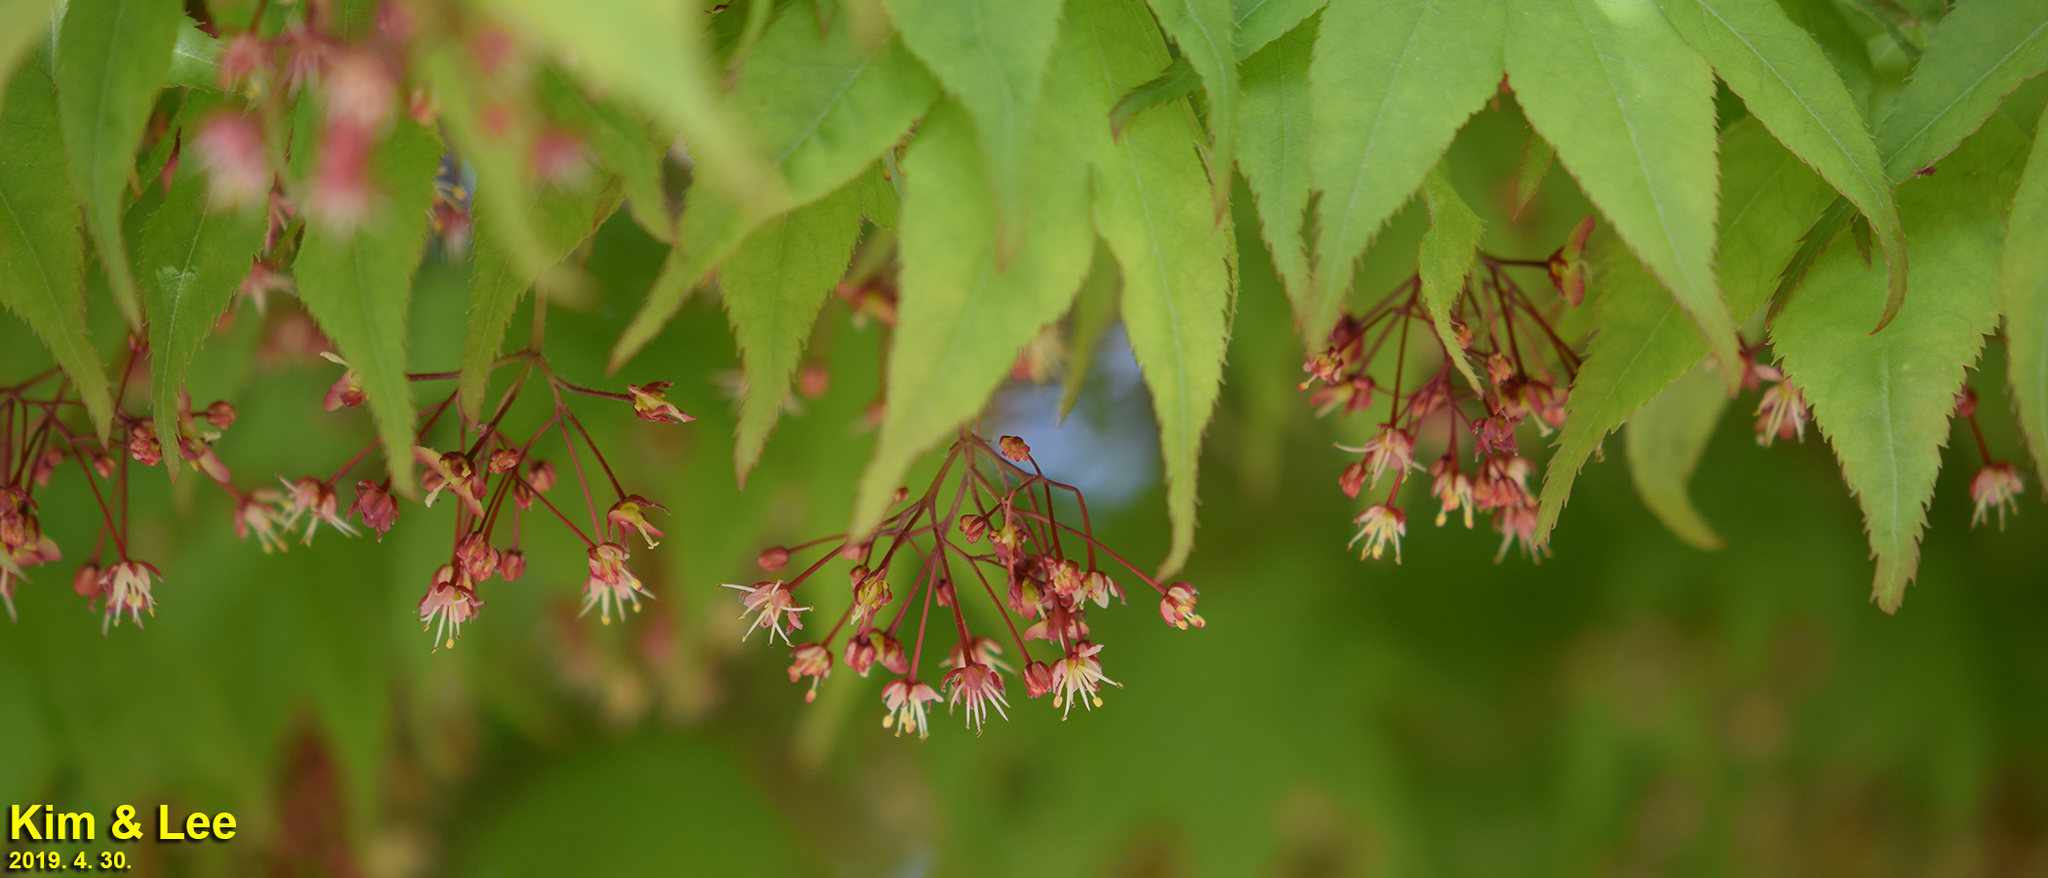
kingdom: Plantae
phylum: Tracheophyta
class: Magnoliopsida
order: Sapindales
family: Sapindaceae
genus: Acer
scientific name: Acer palmatum
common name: Japanese maple
